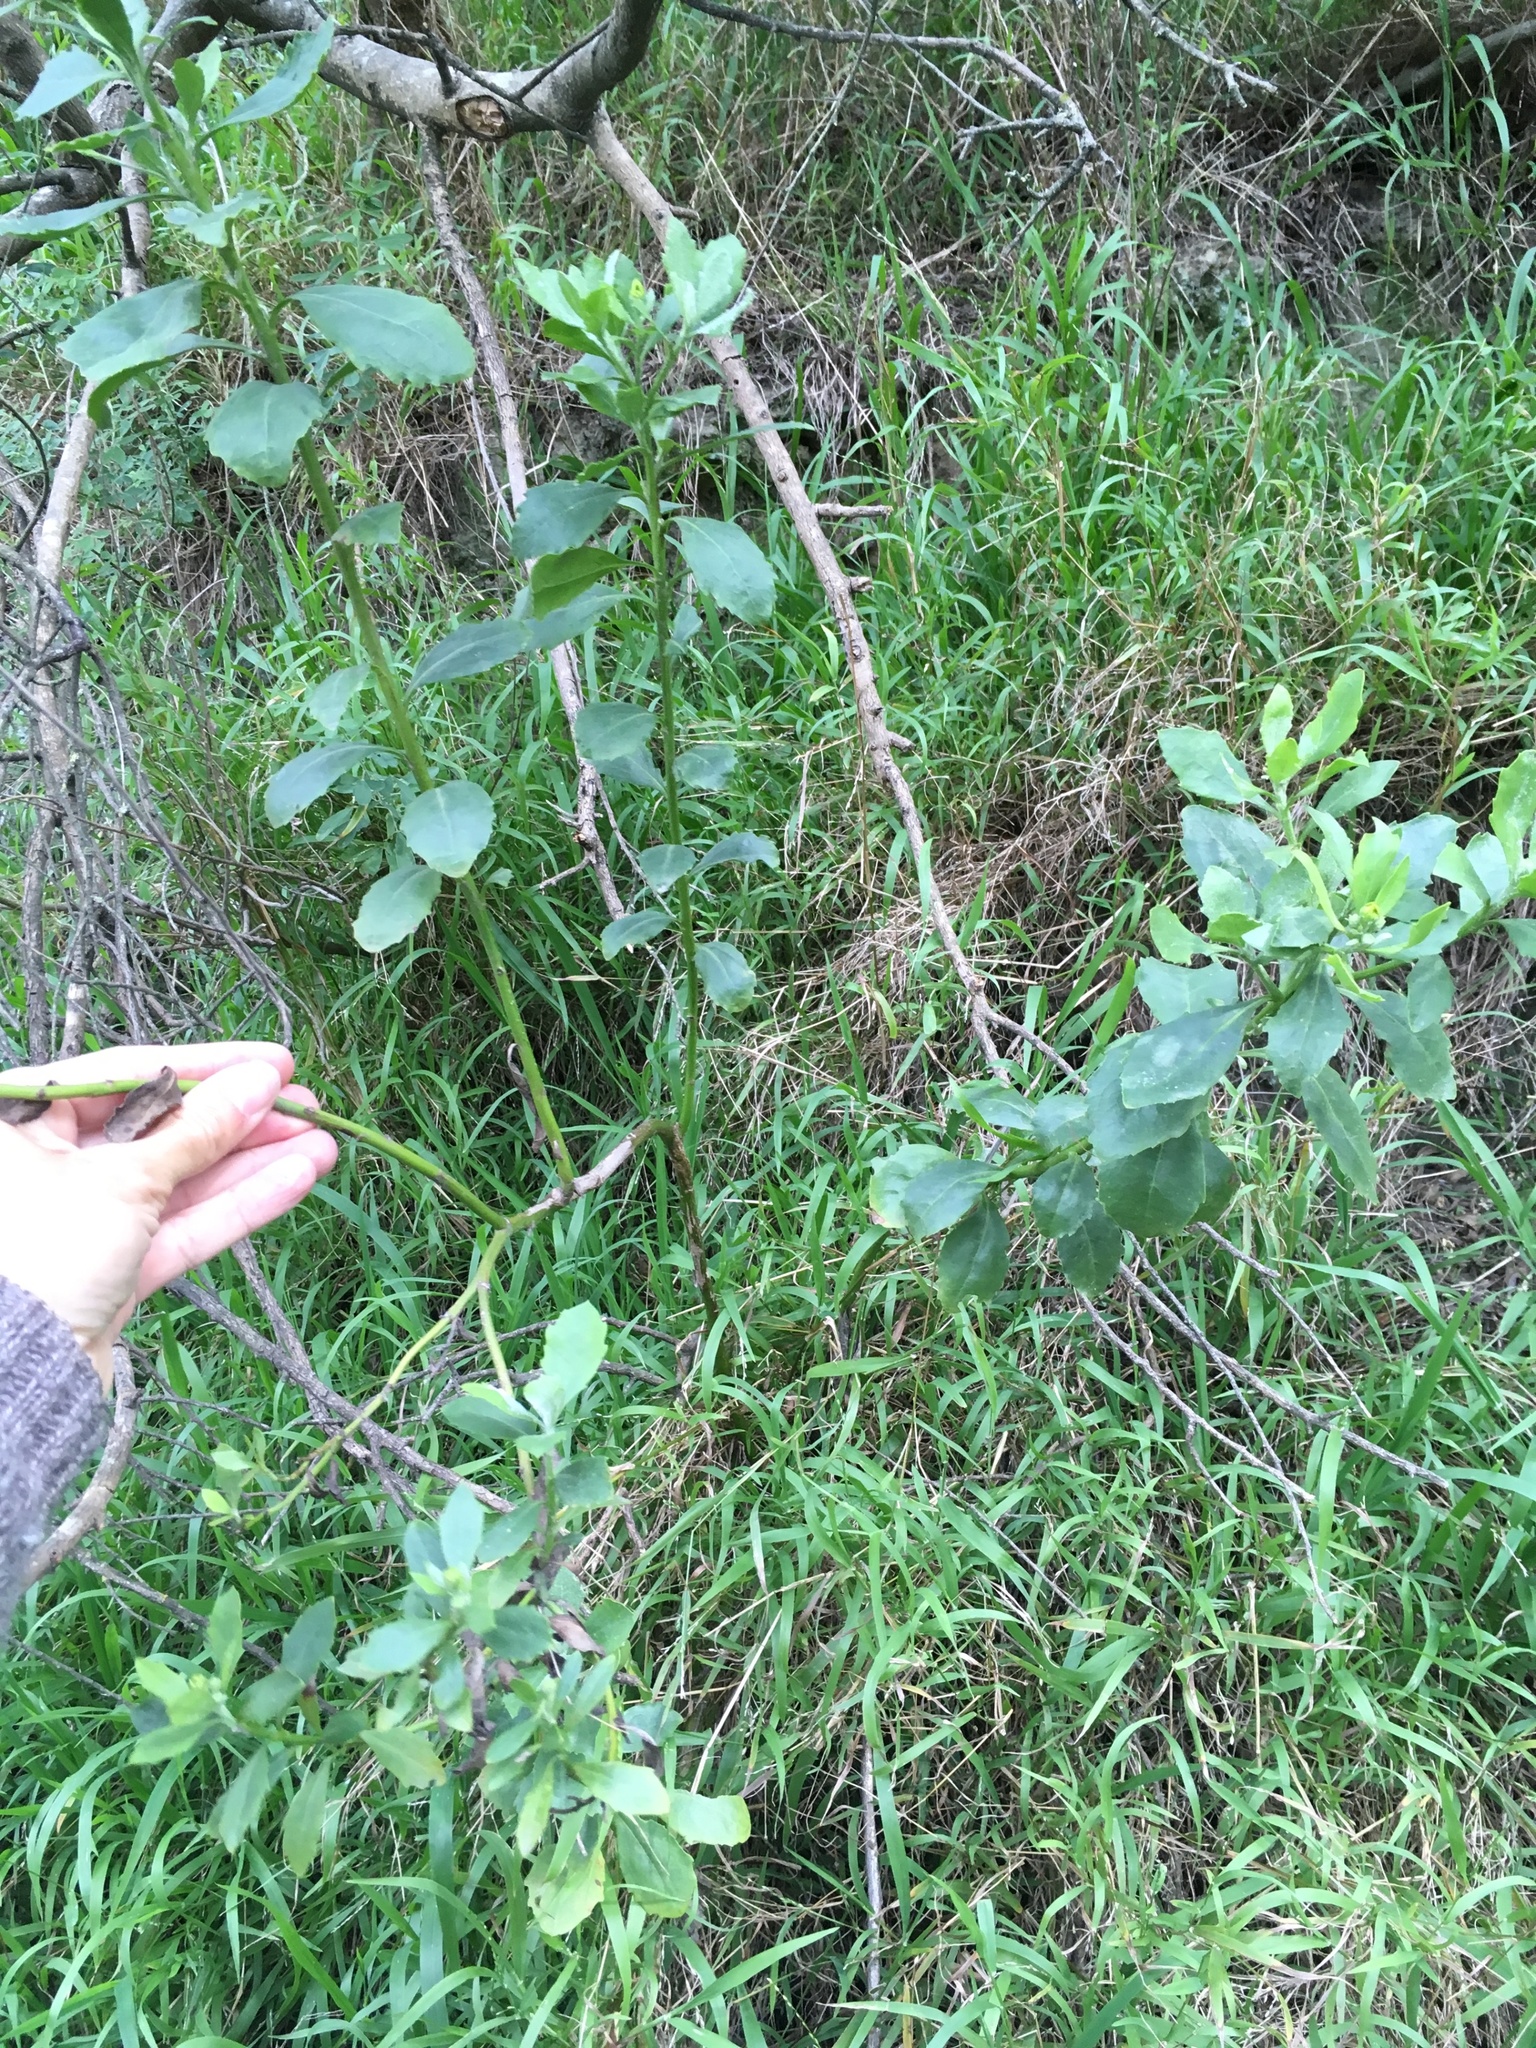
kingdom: Plantae
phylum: Tracheophyta
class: Magnoliopsida
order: Asterales
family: Asteraceae
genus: Osteospermum
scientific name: Osteospermum moniliferum
